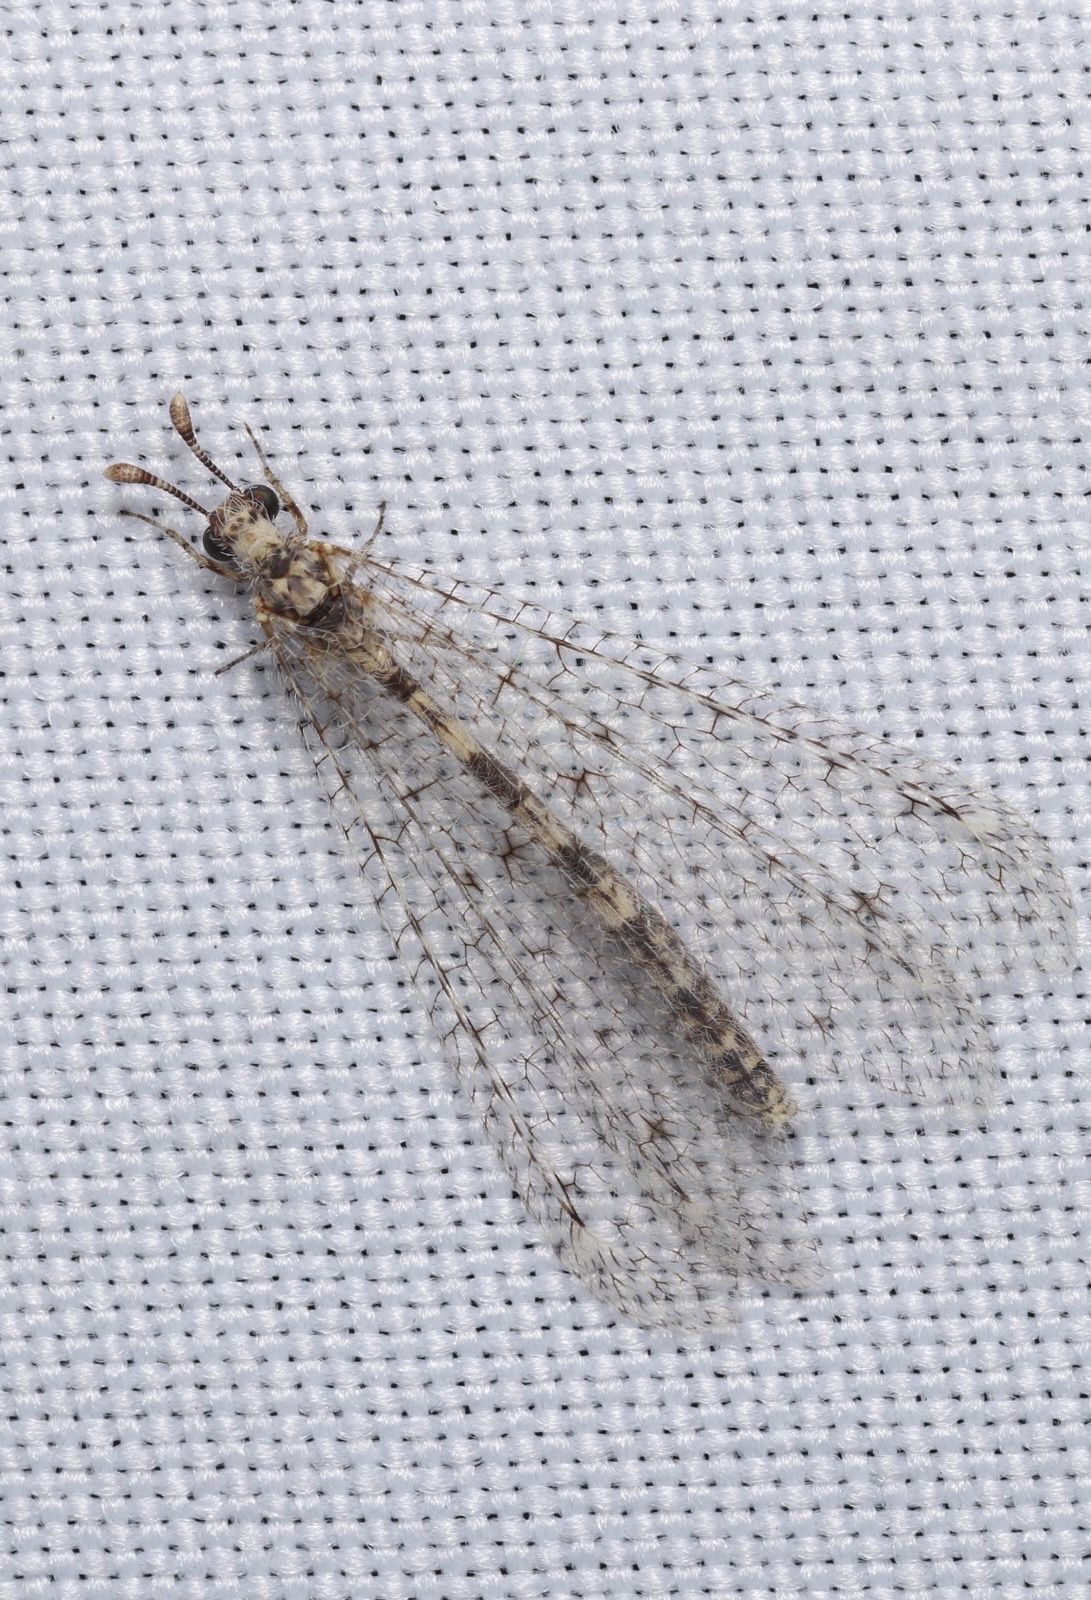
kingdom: Animalia
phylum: Arthropoda
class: Insecta
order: Neuroptera
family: Myrmeleontidae
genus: Menkeleon
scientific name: Menkeleon bellulus
